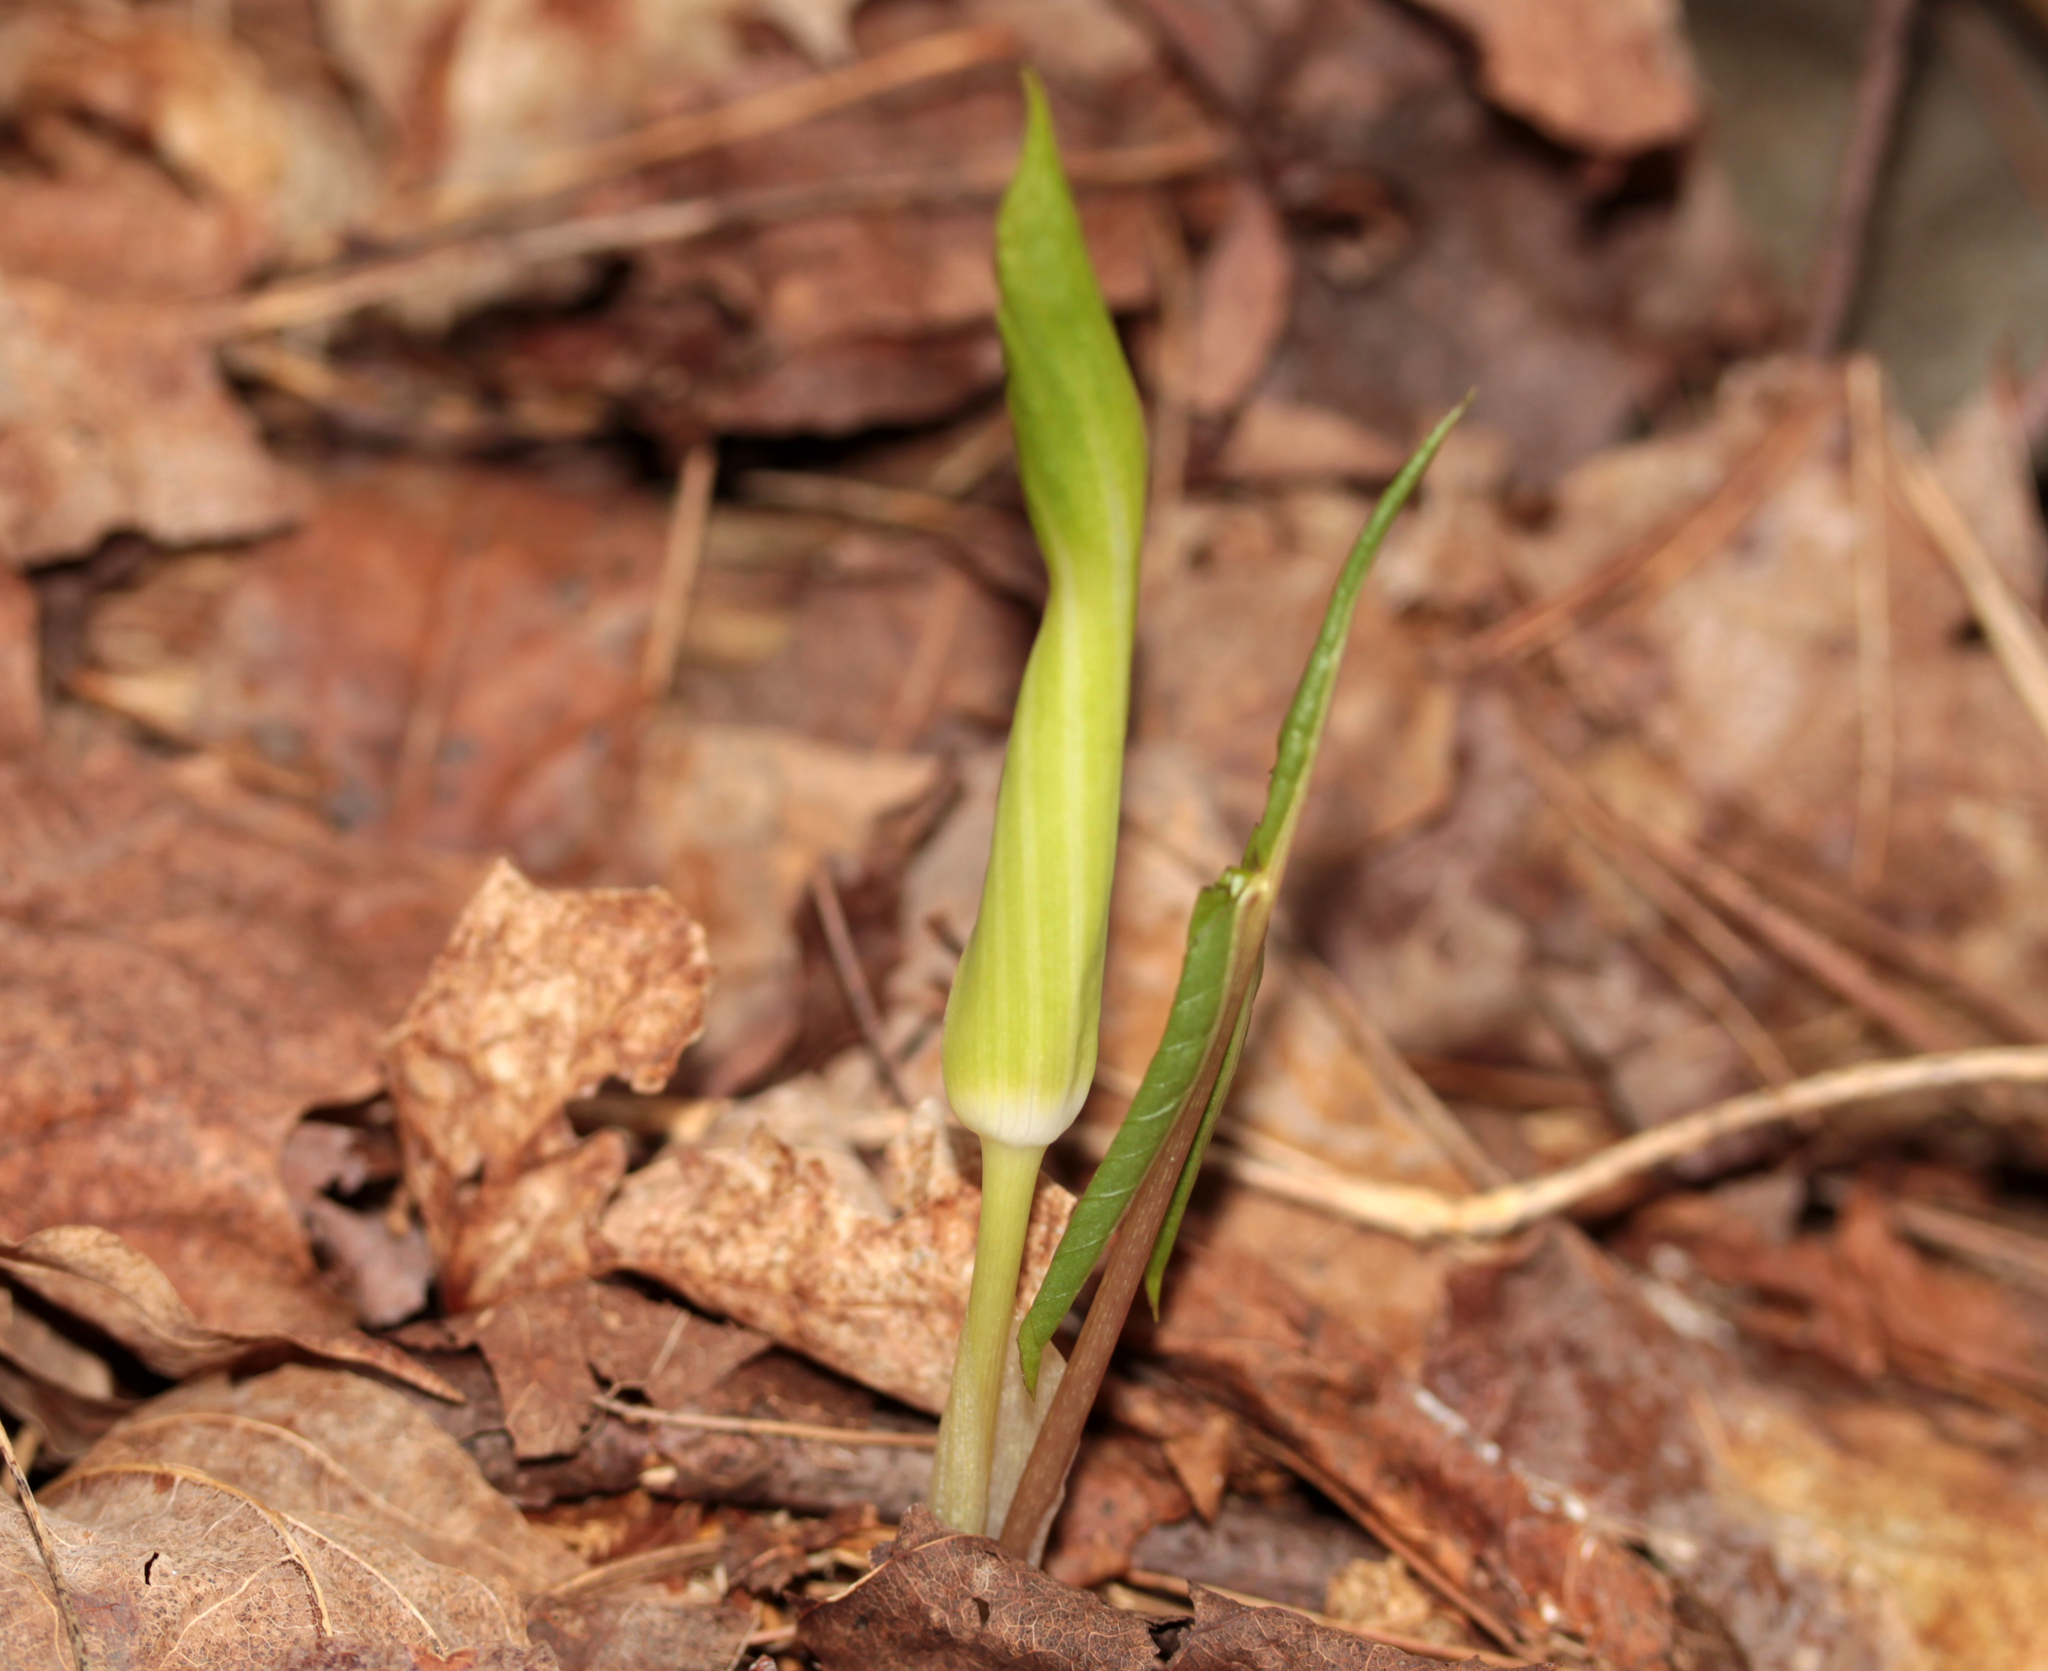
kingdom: Plantae
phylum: Tracheophyta
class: Liliopsida
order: Alismatales
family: Araceae
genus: Arisaema
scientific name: Arisaema triphyllum
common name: Jack-in-the-pulpit
